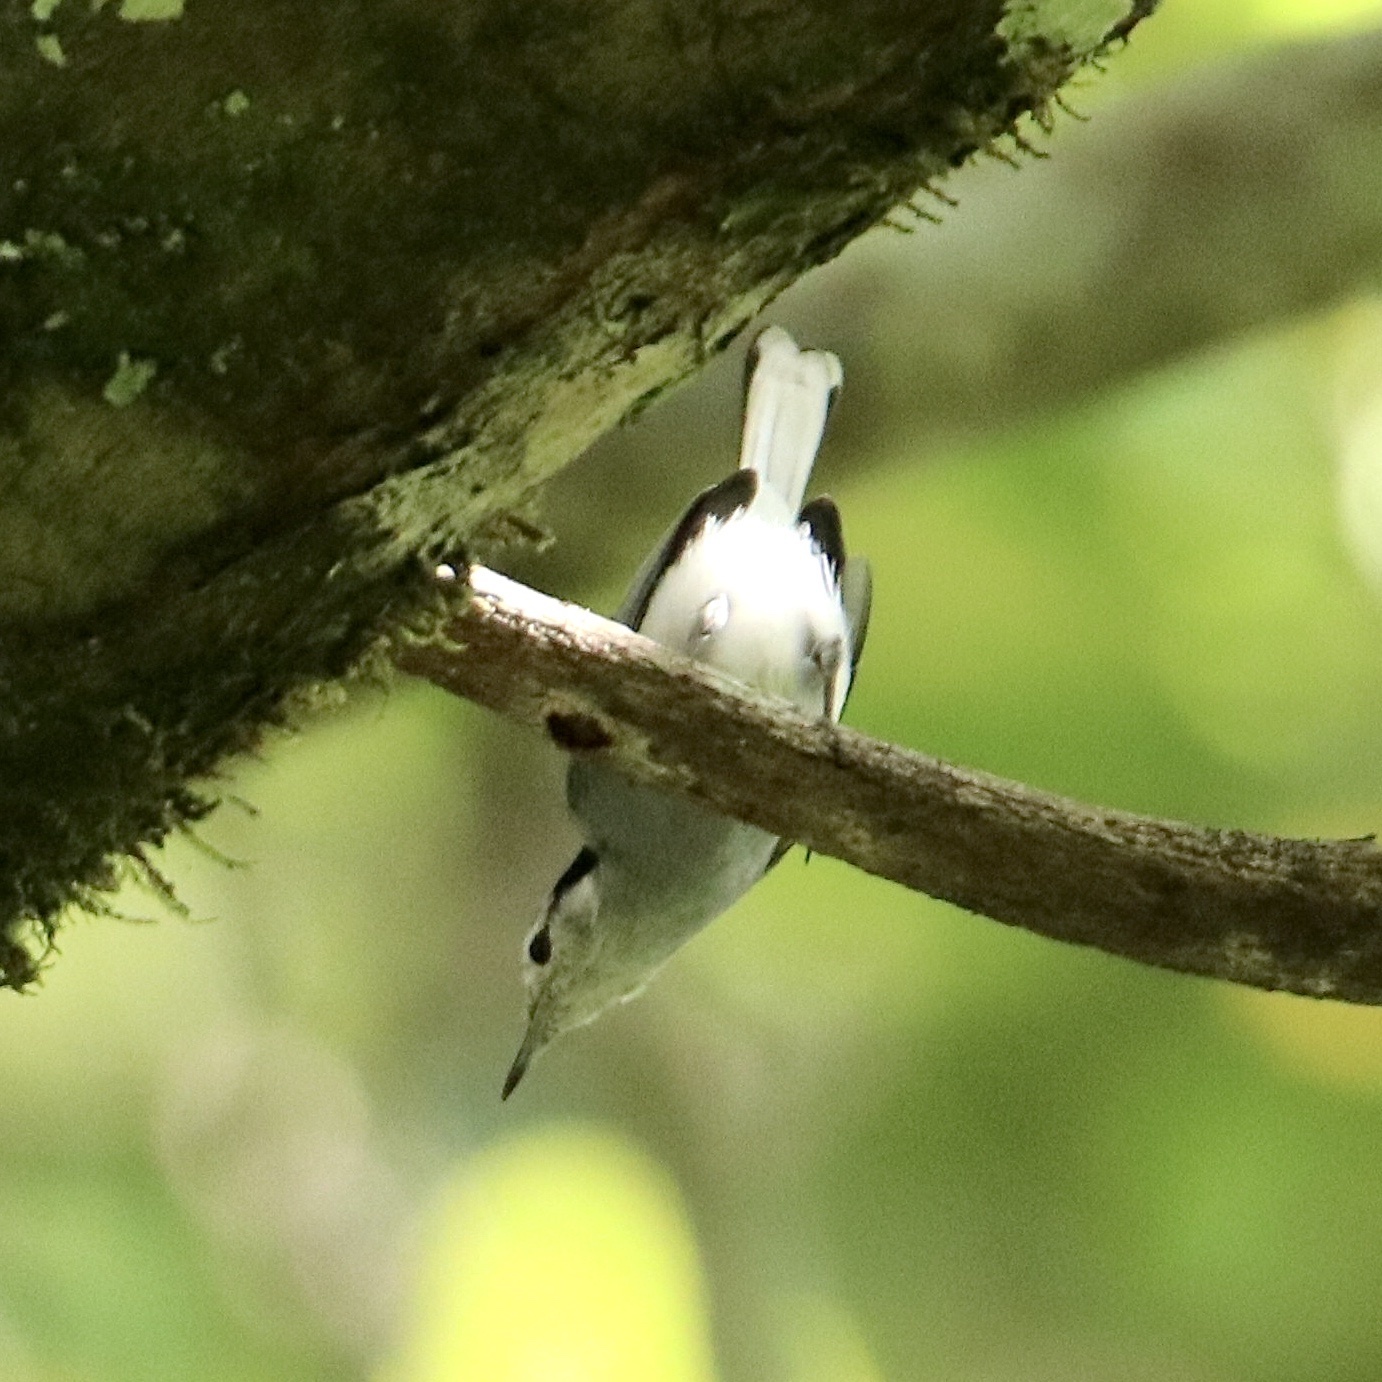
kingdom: Animalia
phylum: Chordata
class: Aves
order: Passeriformes
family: Polioptilidae
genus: Polioptila
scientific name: Polioptila plumbea
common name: Tropical gnatcatcher
